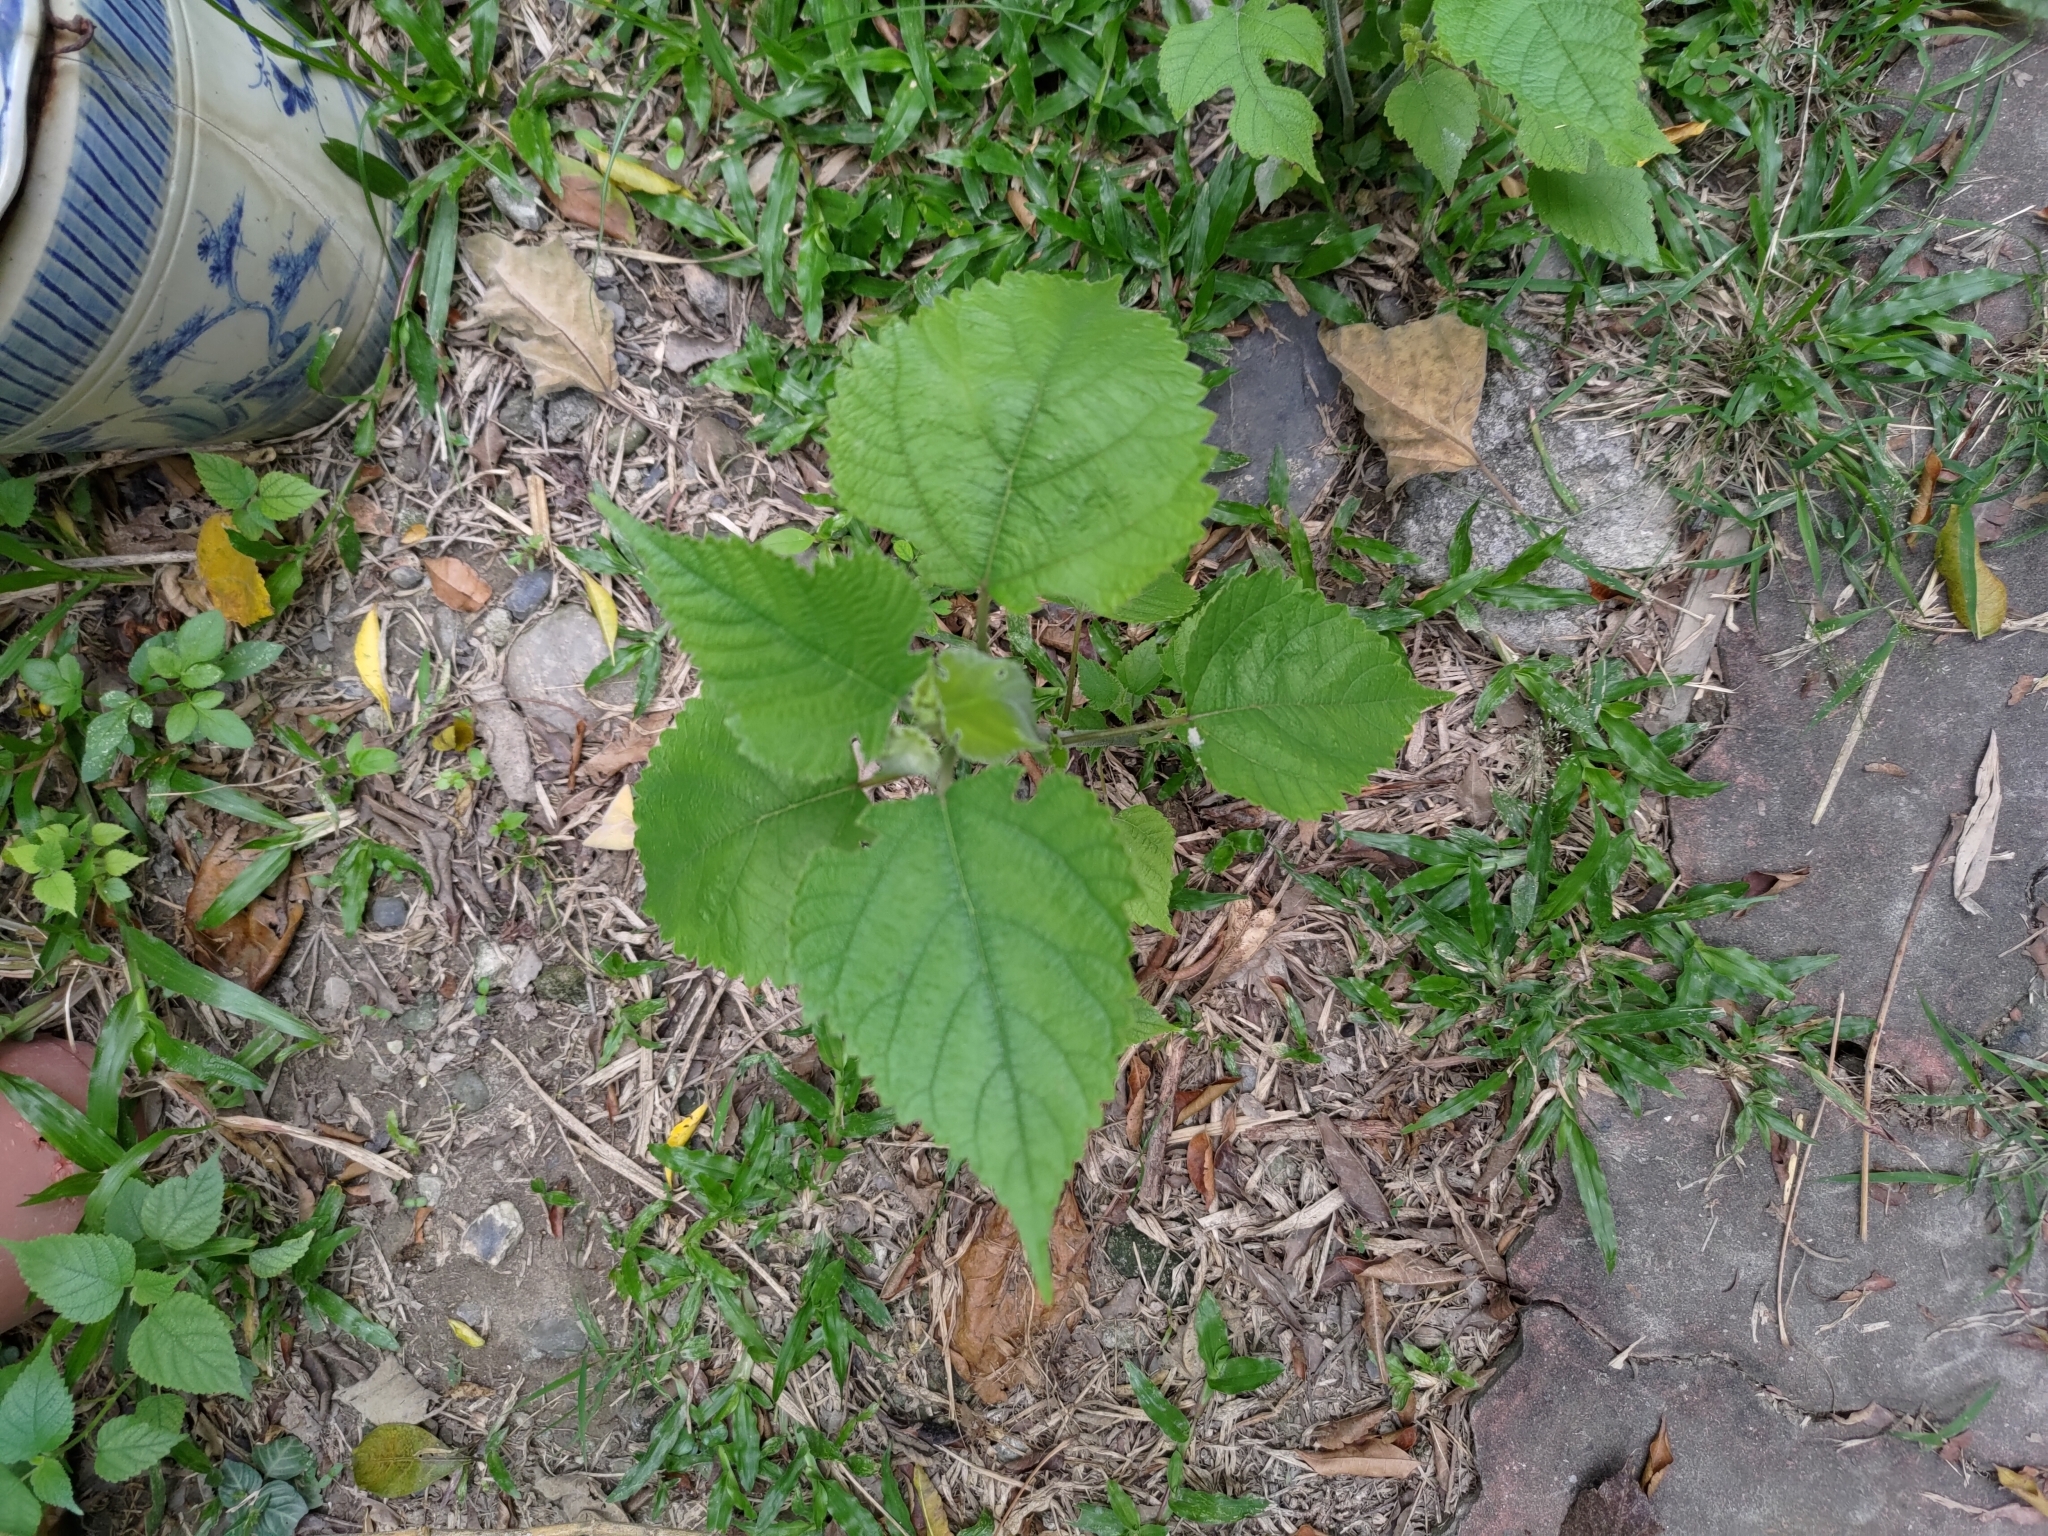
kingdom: Plantae
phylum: Tracheophyta
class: Magnoliopsida
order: Rosales
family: Moraceae
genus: Broussonetia
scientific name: Broussonetia papyrifera
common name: Paper mulberry
